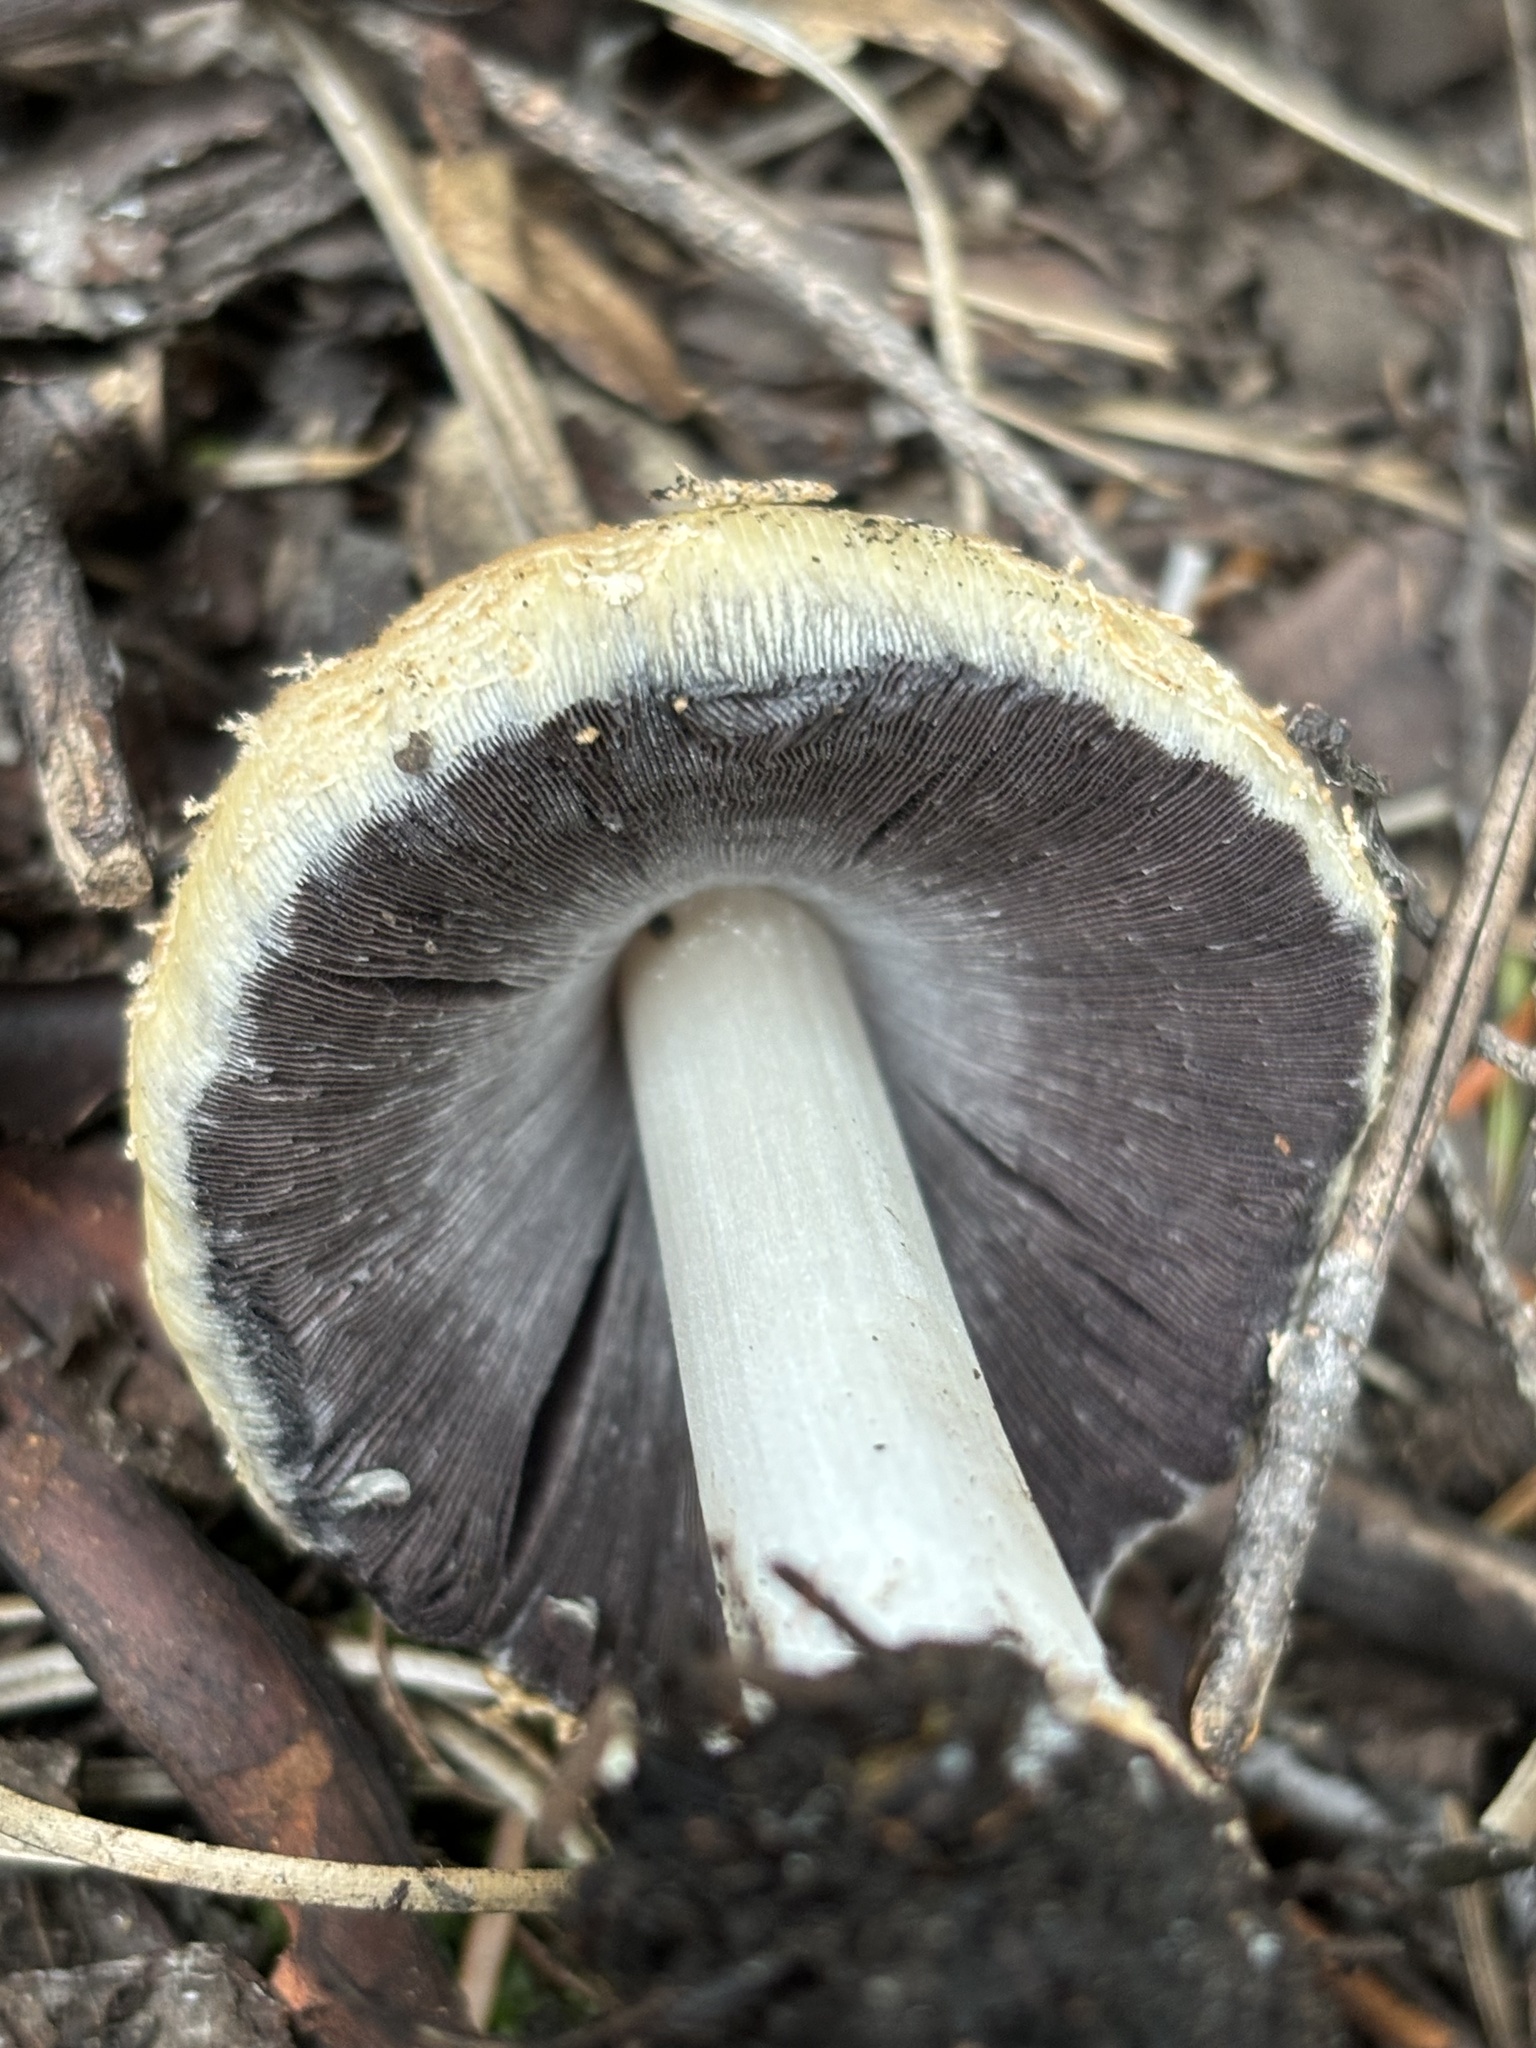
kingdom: Fungi
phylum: Basidiomycota
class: Agaricomycetes
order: Agaricales
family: Psathyrellaceae
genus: Coprinellus
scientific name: Coprinellus bipellis
